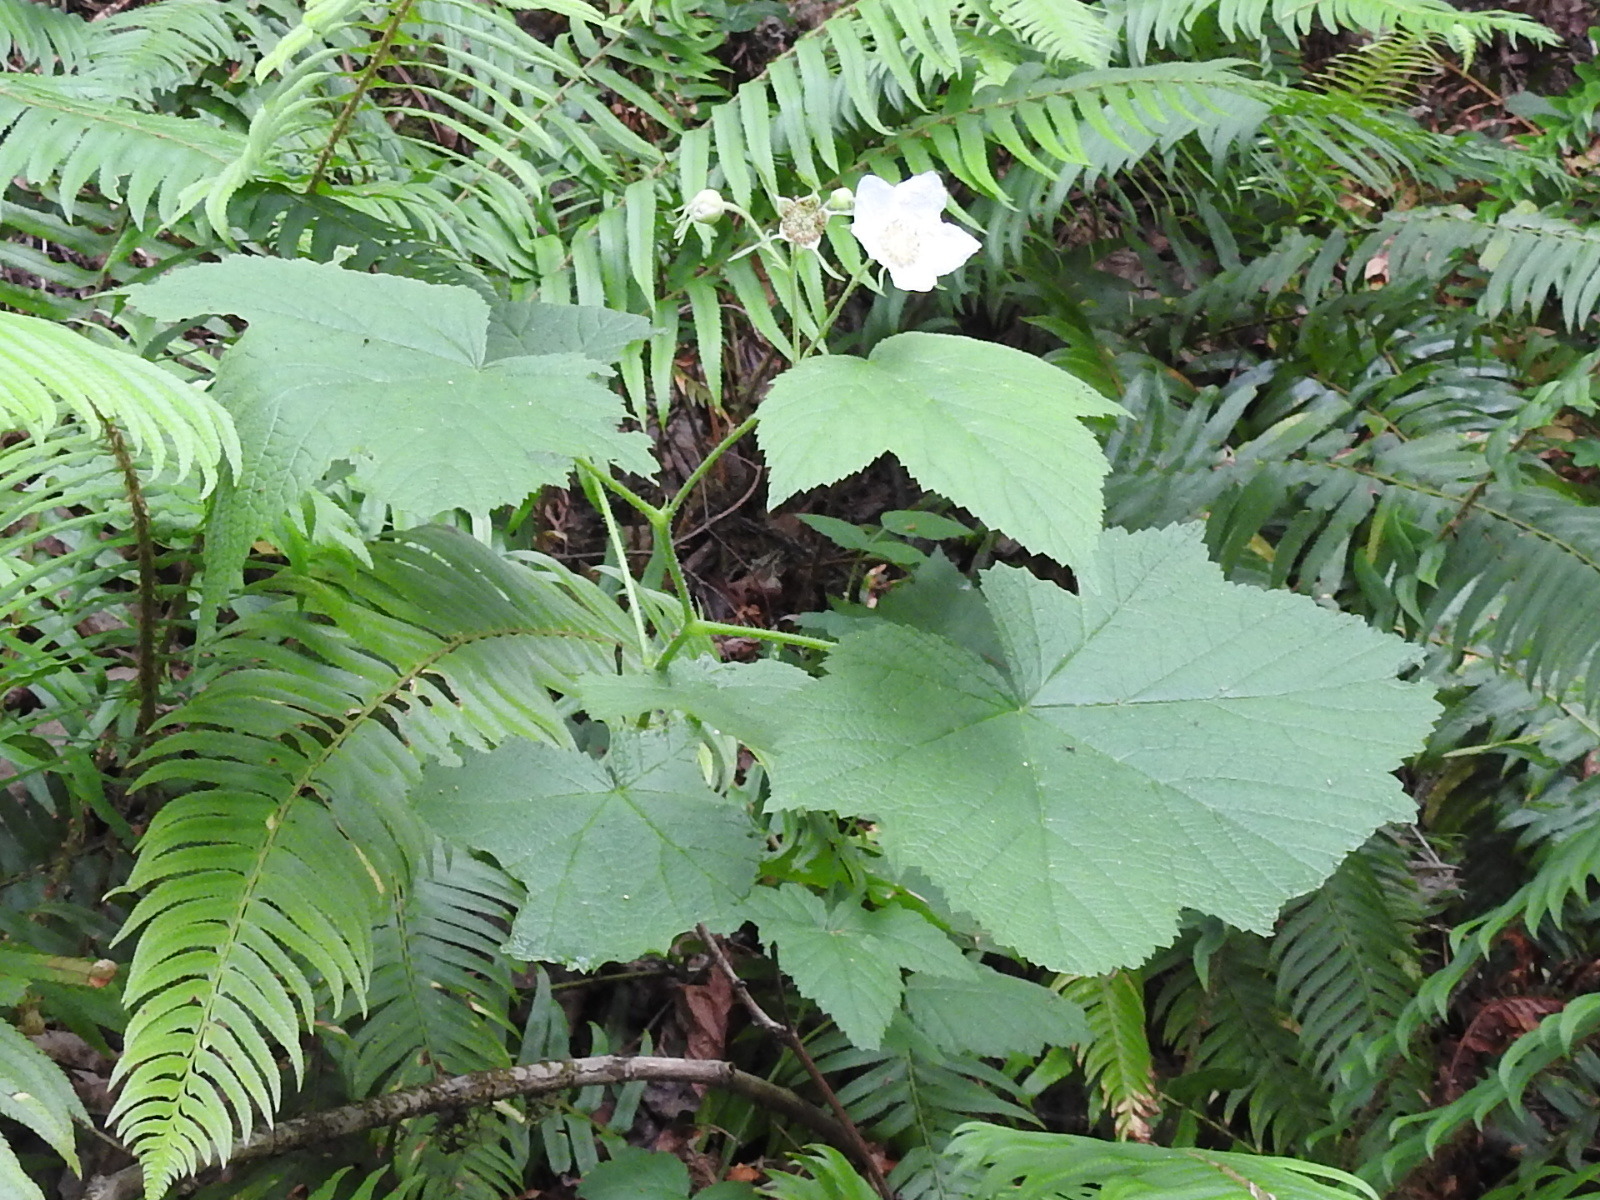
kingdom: Plantae
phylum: Tracheophyta
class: Magnoliopsida
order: Rosales
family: Rosaceae
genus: Rubus
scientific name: Rubus parviflorus
